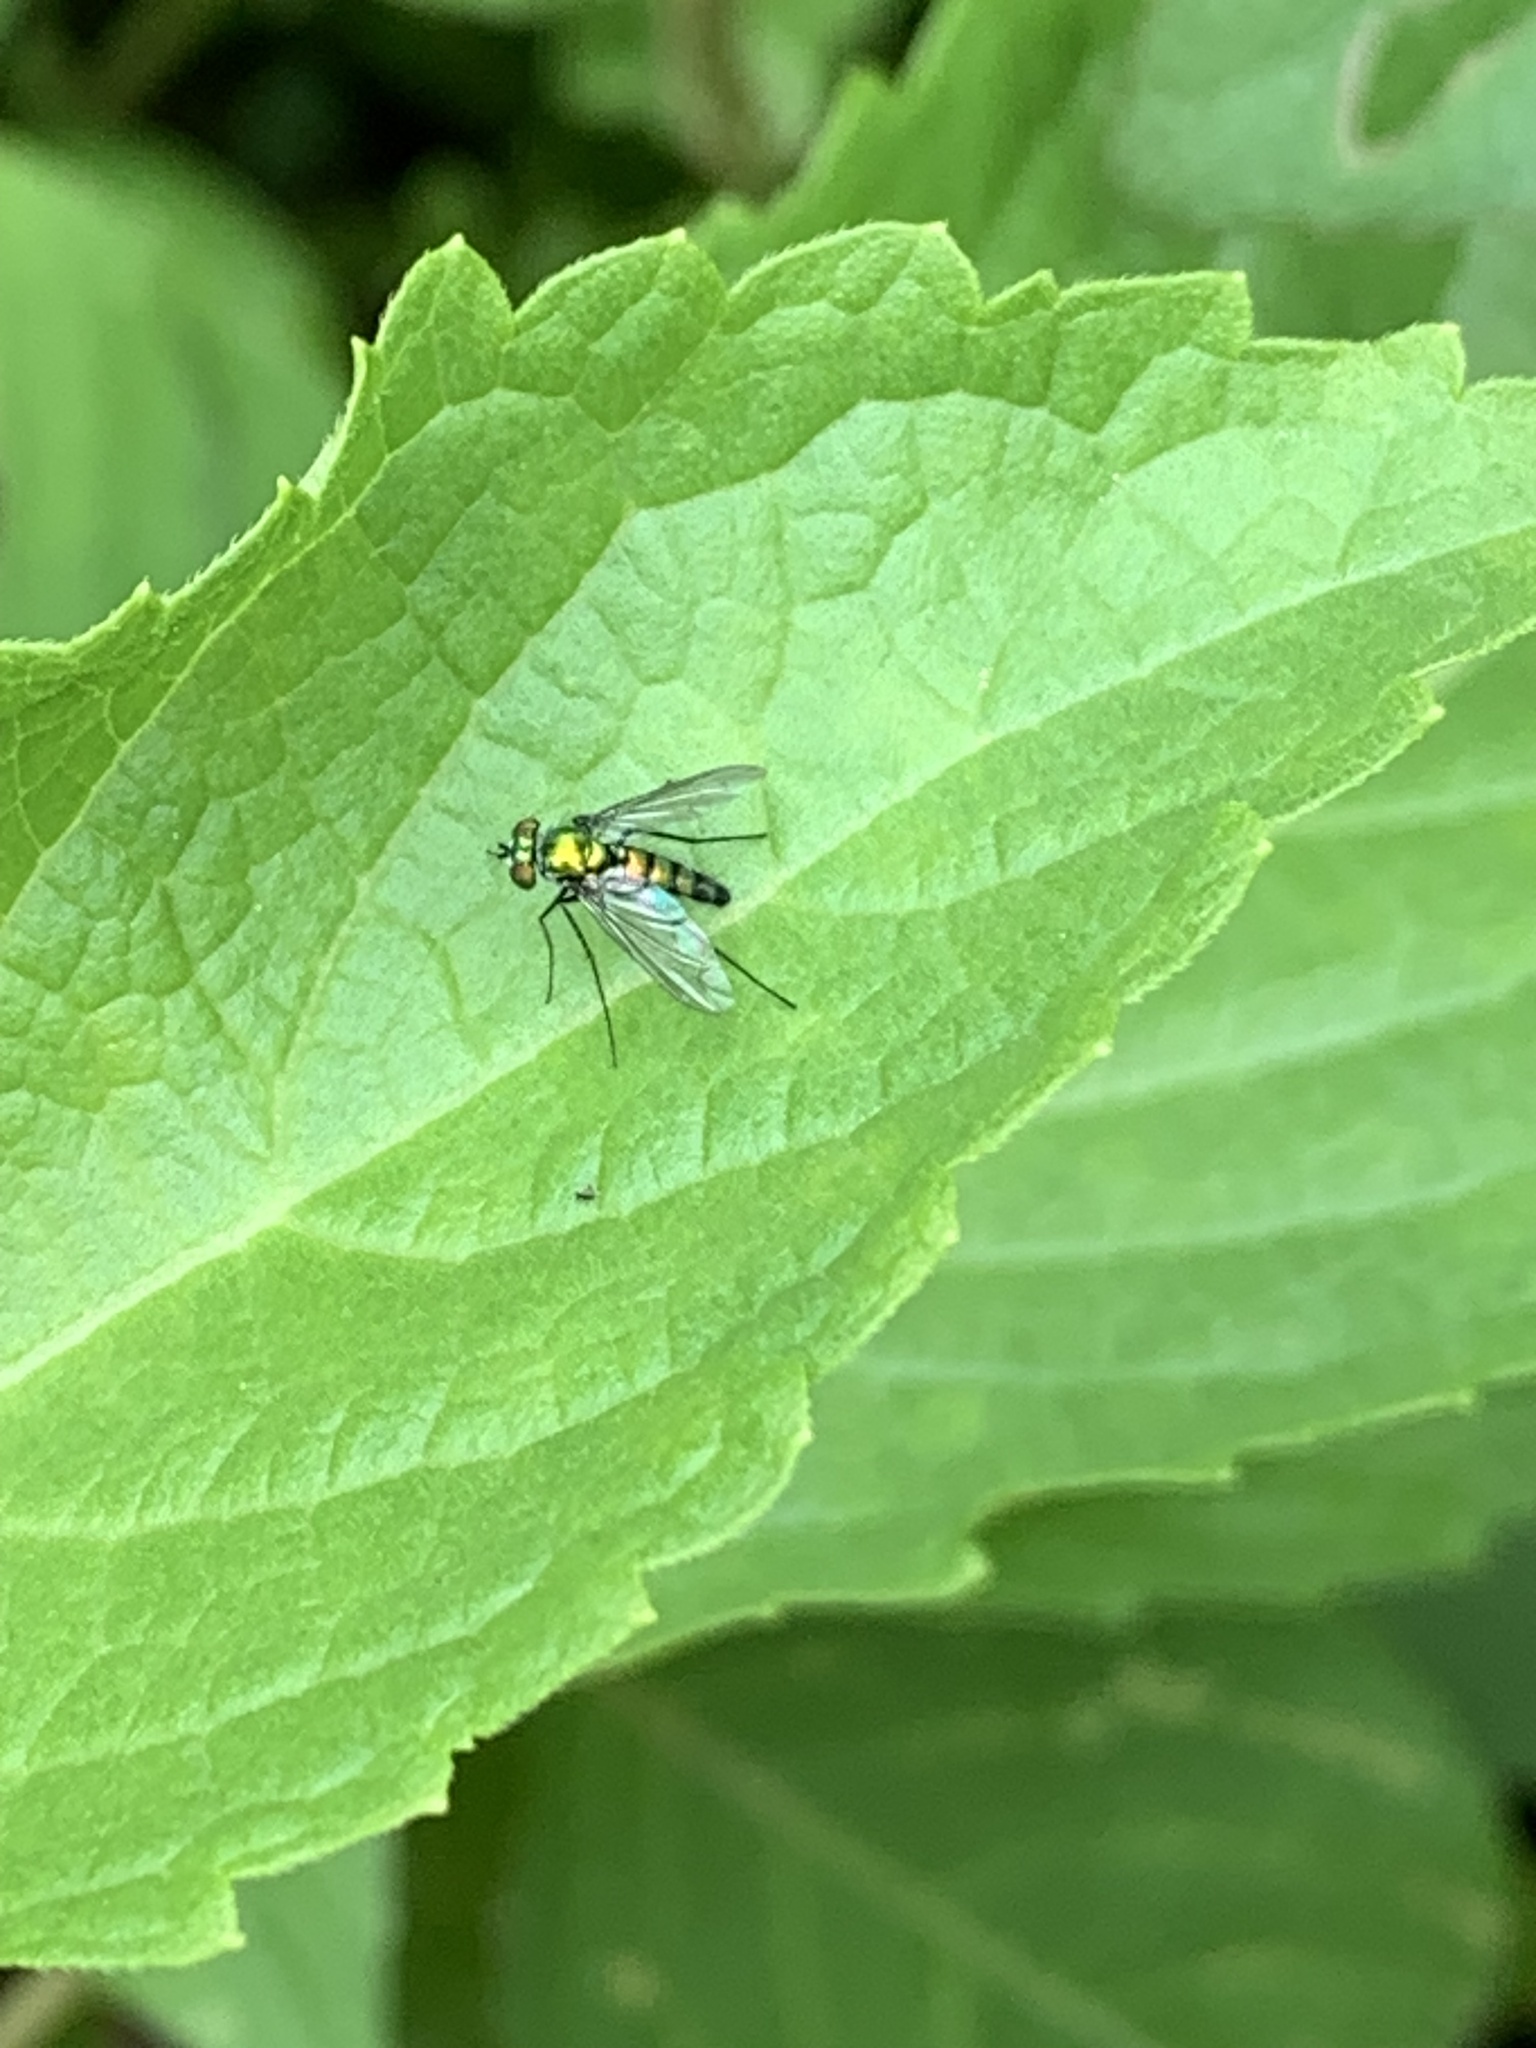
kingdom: Animalia
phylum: Arthropoda
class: Insecta
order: Diptera
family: Dolichopodidae
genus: Condylostylus
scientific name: Condylostylus longicornis
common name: Long-legged fly
